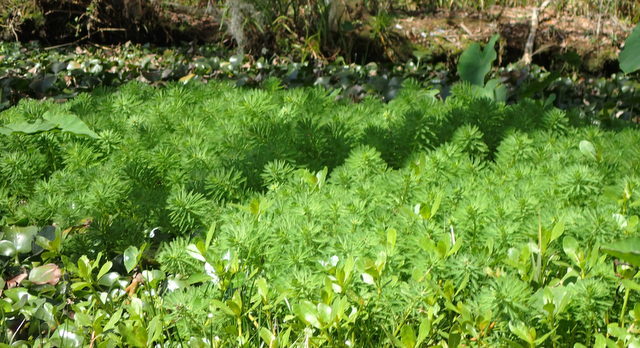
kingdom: Plantae
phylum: Tracheophyta
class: Magnoliopsida
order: Saxifragales
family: Haloragaceae
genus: Myriophyllum
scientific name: Myriophyllum aquaticum
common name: Parrot's feather
